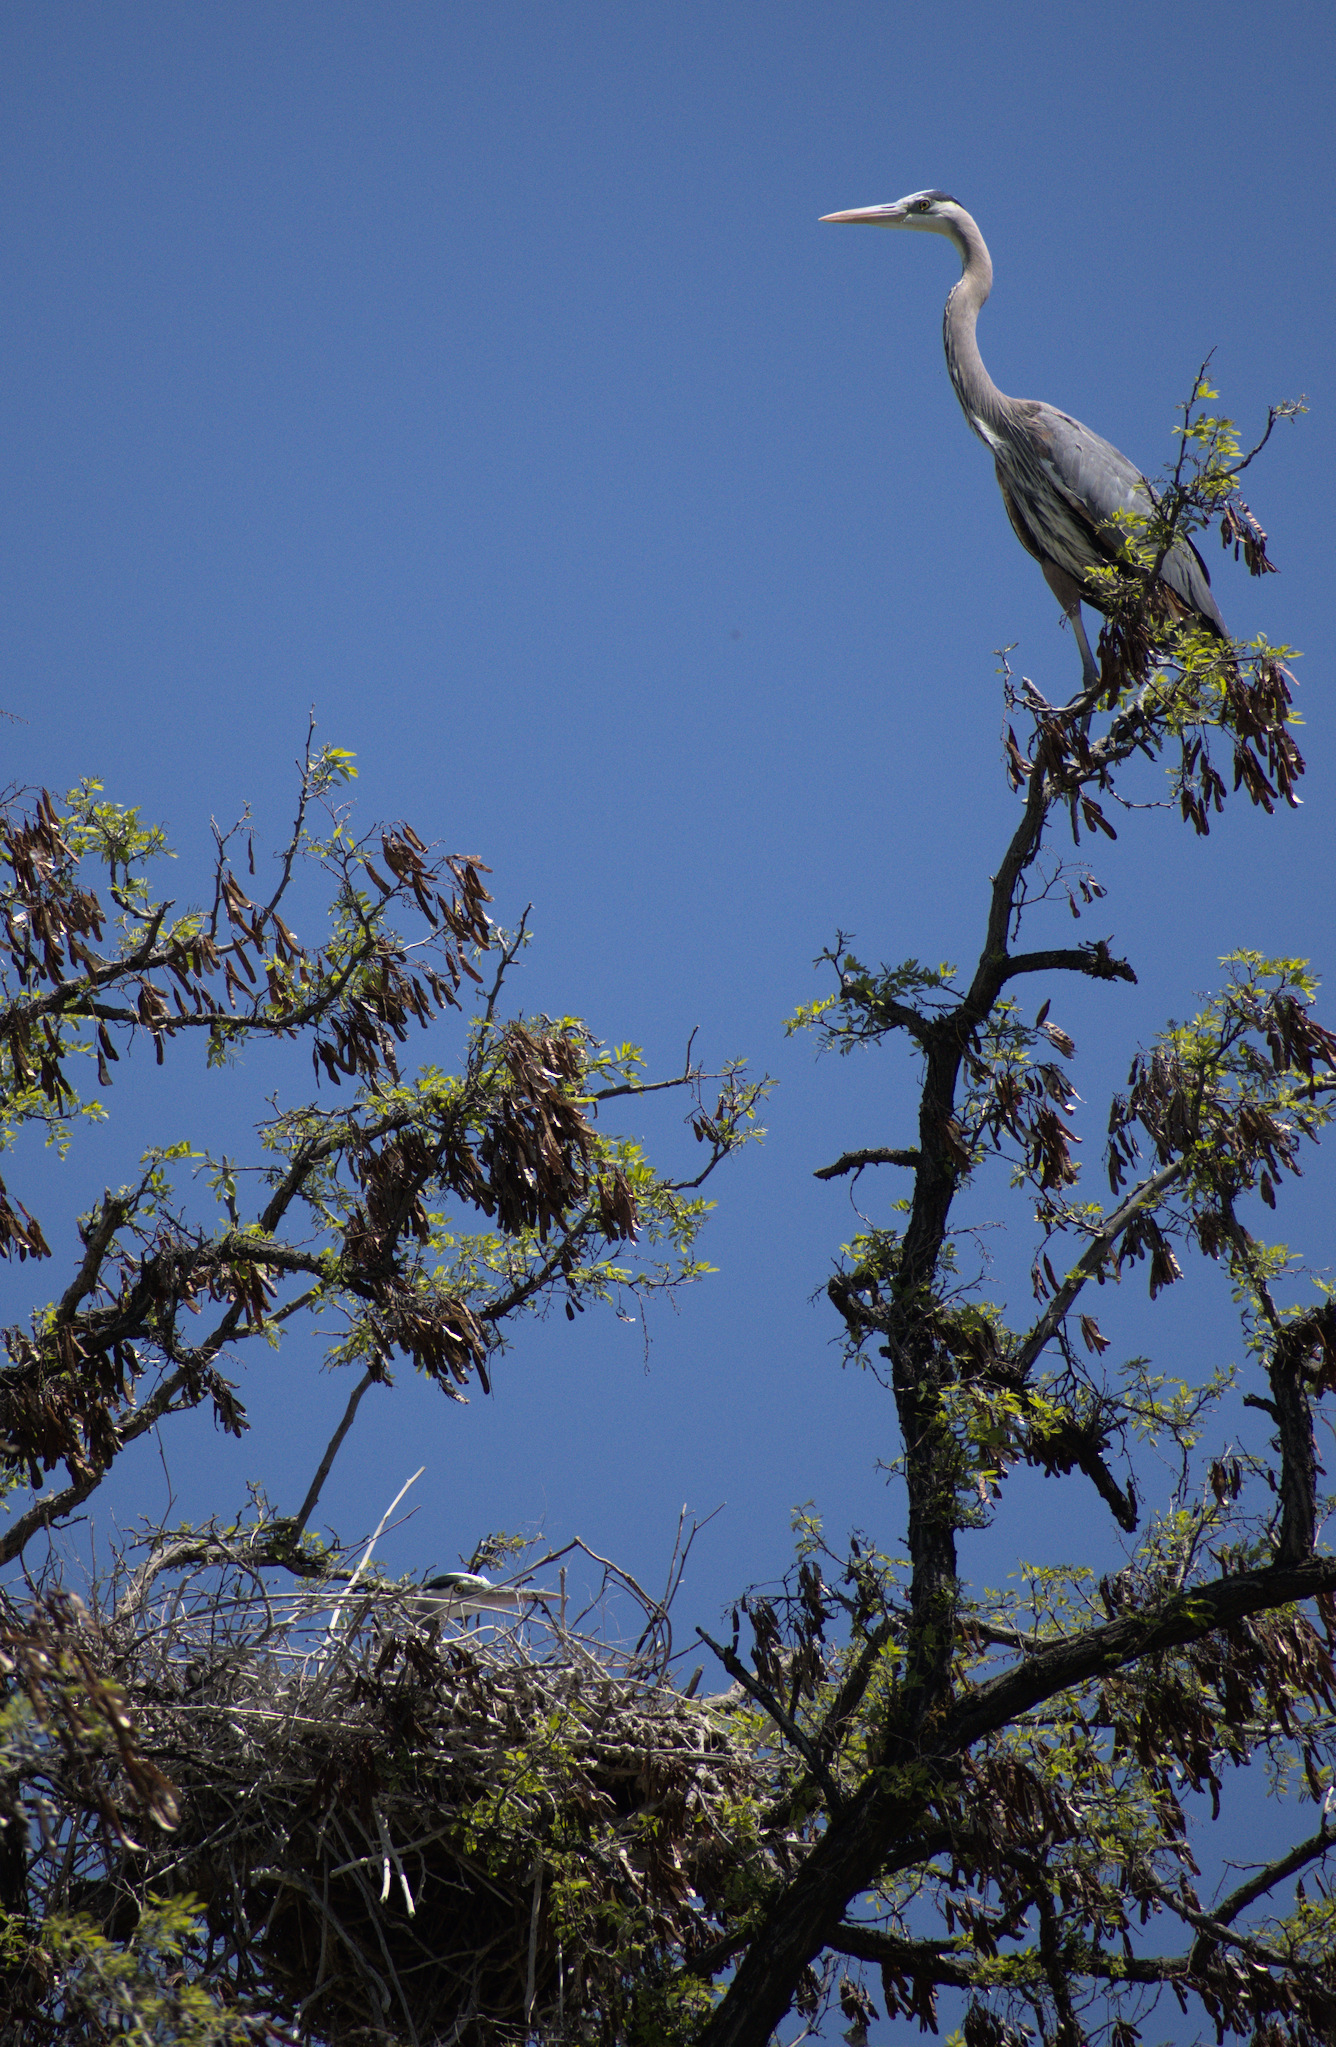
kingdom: Animalia
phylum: Chordata
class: Aves
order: Pelecaniformes
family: Ardeidae
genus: Ardea
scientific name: Ardea herodias
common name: Great blue heron
